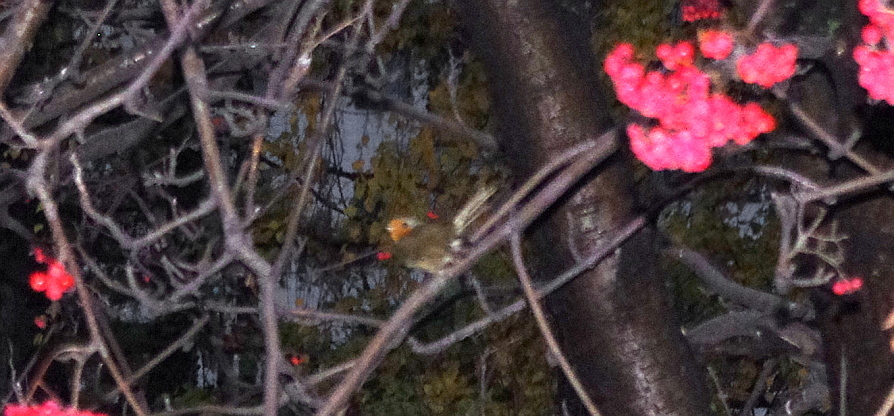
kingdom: Animalia
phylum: Chordata
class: Aves
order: Passeriformes
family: Muscicapidae
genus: Erithacus
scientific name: Erithacus rubecula
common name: European robin
